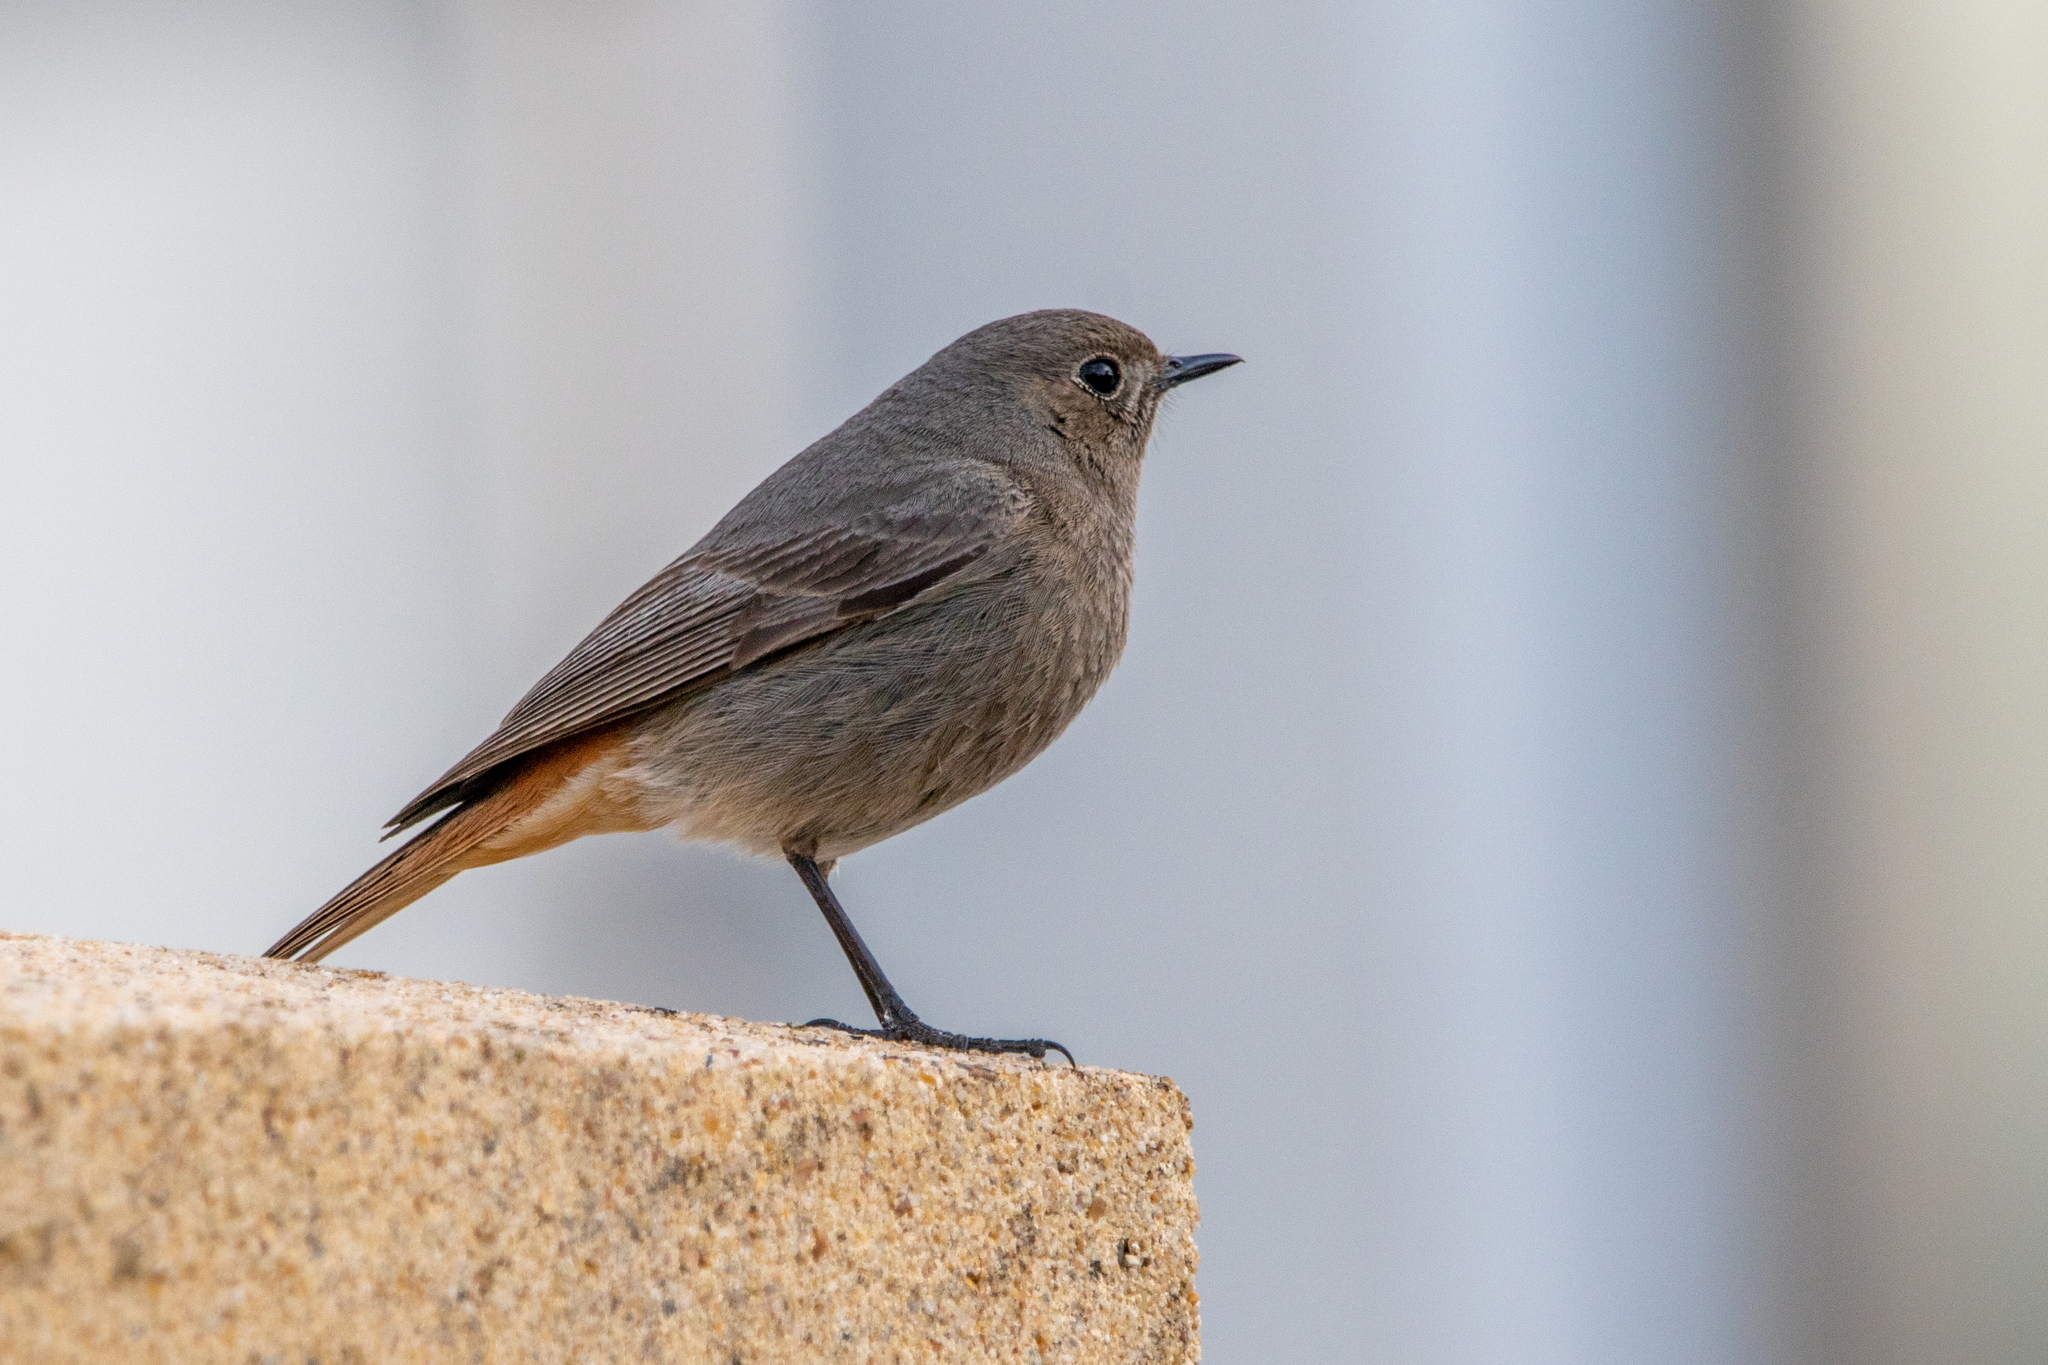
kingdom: Animalia
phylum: Chordata
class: Aves
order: Passeriformes
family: Muscicapidae
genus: Phoenicurus
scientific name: Phoenicurus ochruros
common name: Black redstart
